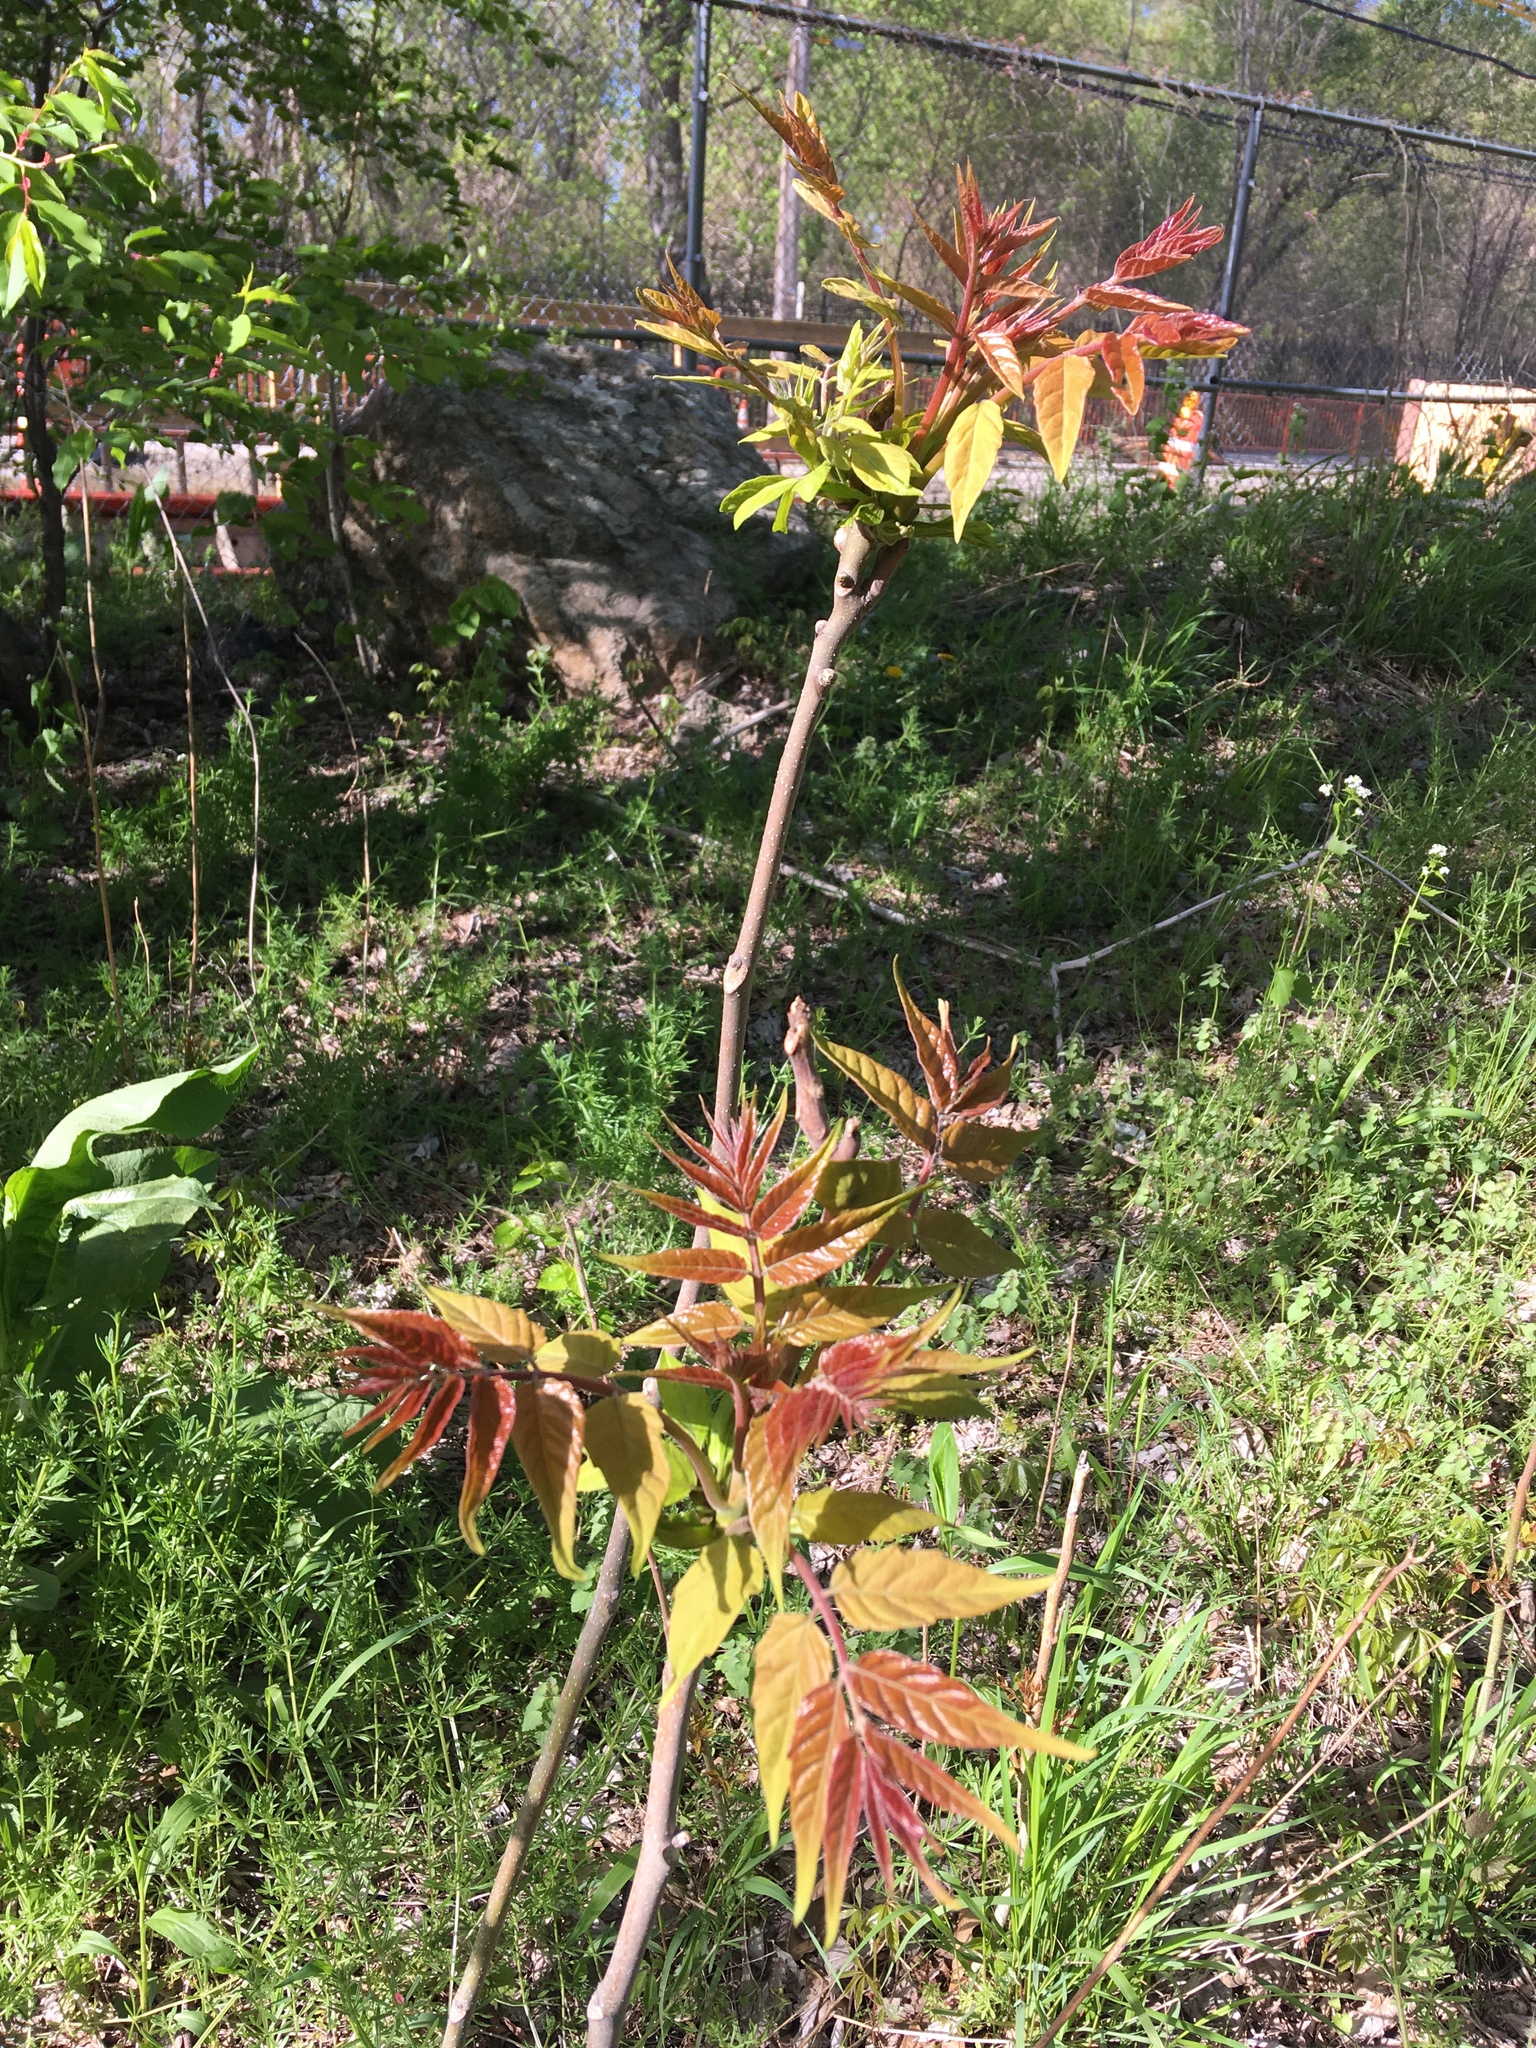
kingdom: Plantae
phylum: Tracheophyta
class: Magnoliopsida
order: Sapindales
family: Simaroubaceae
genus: Ailanthus
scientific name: Ailanthus altissima
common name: Tree-of-heaven
